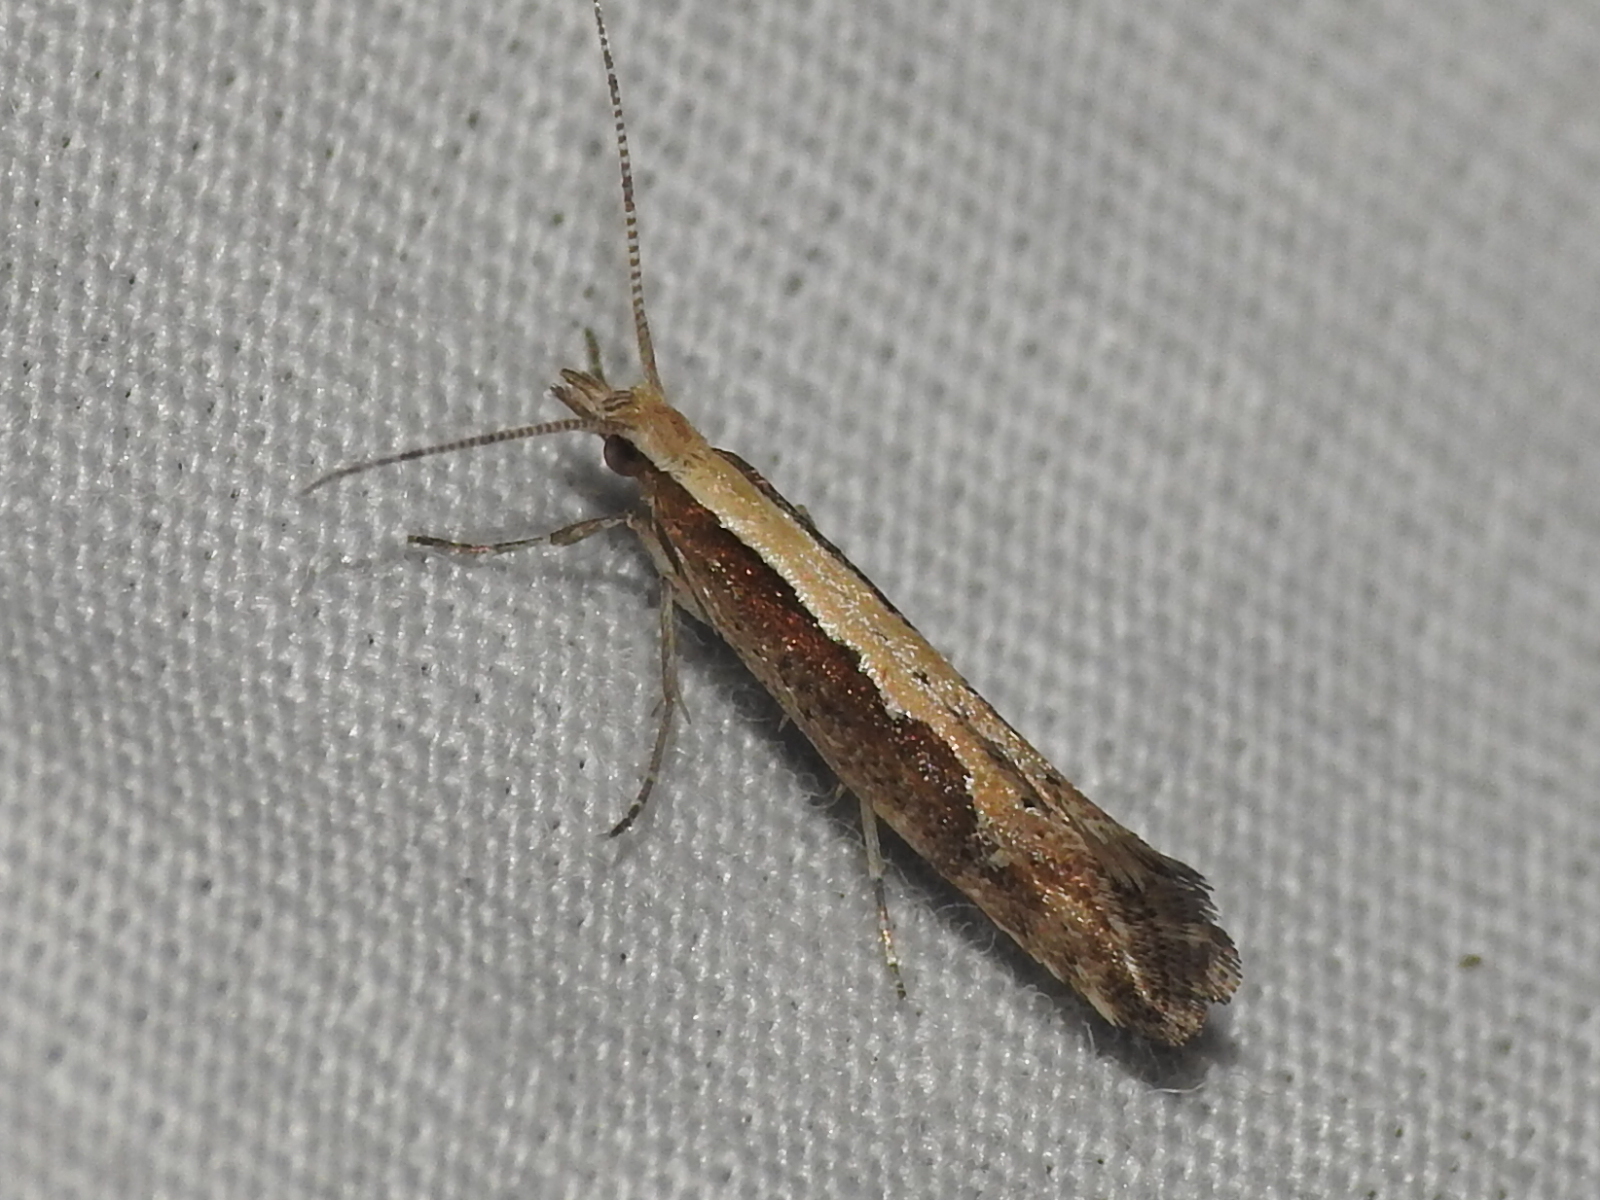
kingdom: Animalia
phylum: Arthropoda
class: Insecta
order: Lepidoptera
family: Plutellidae
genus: Plutella
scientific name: Plutella xylostella
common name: Diamond-back moth
